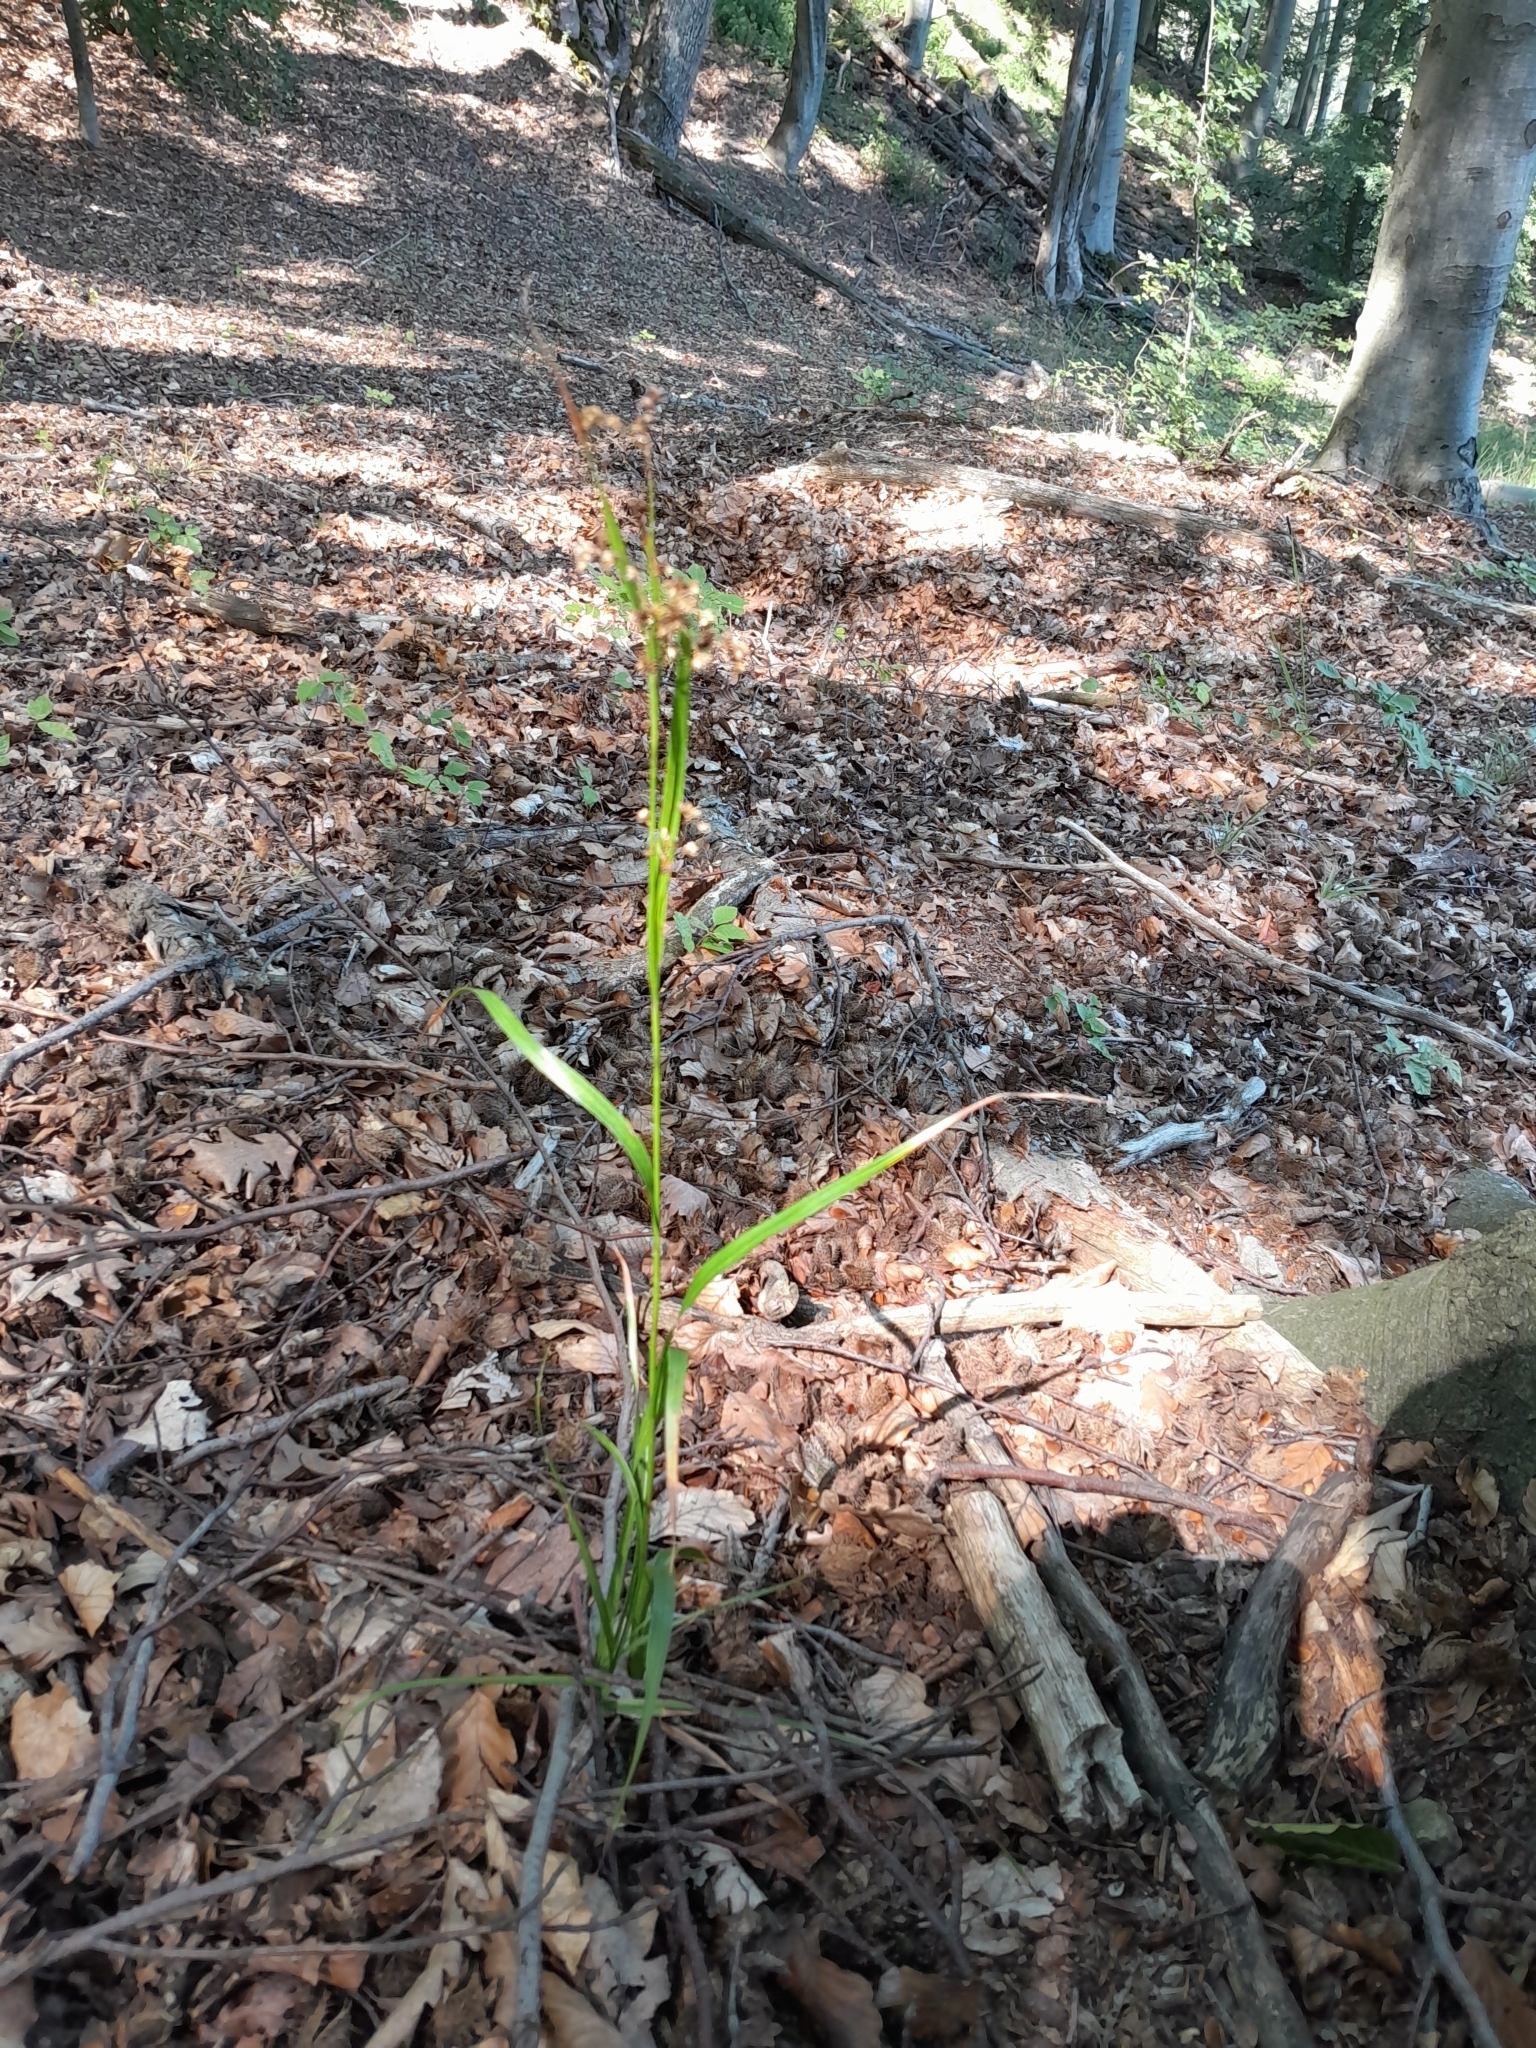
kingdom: Plantae
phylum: Tracheophyta
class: Liliopsida
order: Poales
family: Juncaceae
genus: Luzula
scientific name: Luzula luzuloides
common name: White wood-rush
